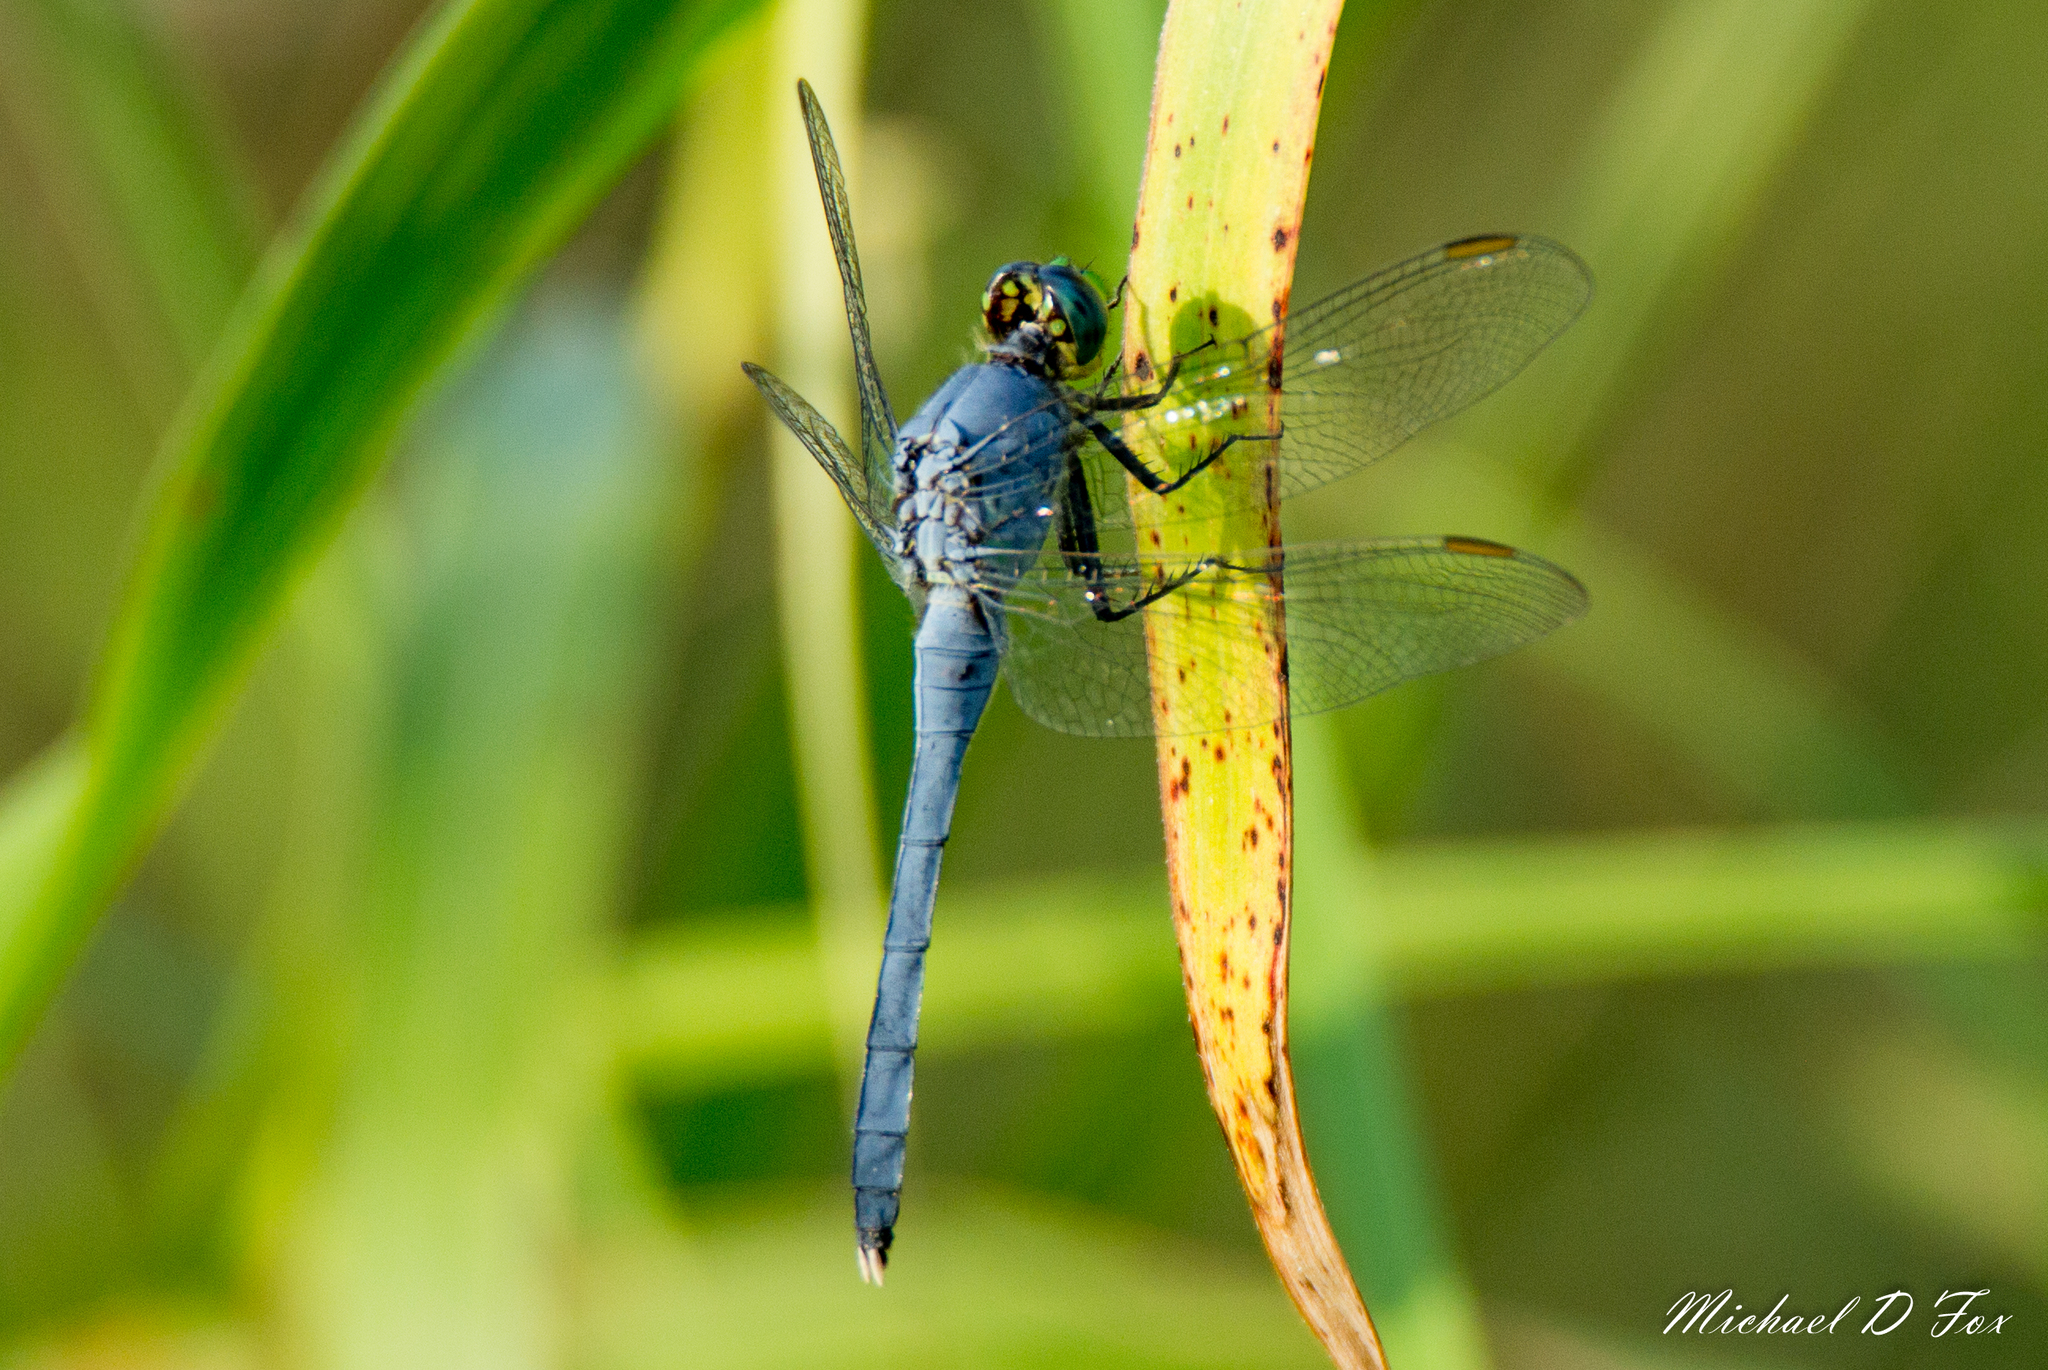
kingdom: Animalia
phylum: Arthropoda
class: Insecta
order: Odonata
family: Libellulidae
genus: Erythemis
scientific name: Erythemis simplicicollis
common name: Eastern pondhawk
